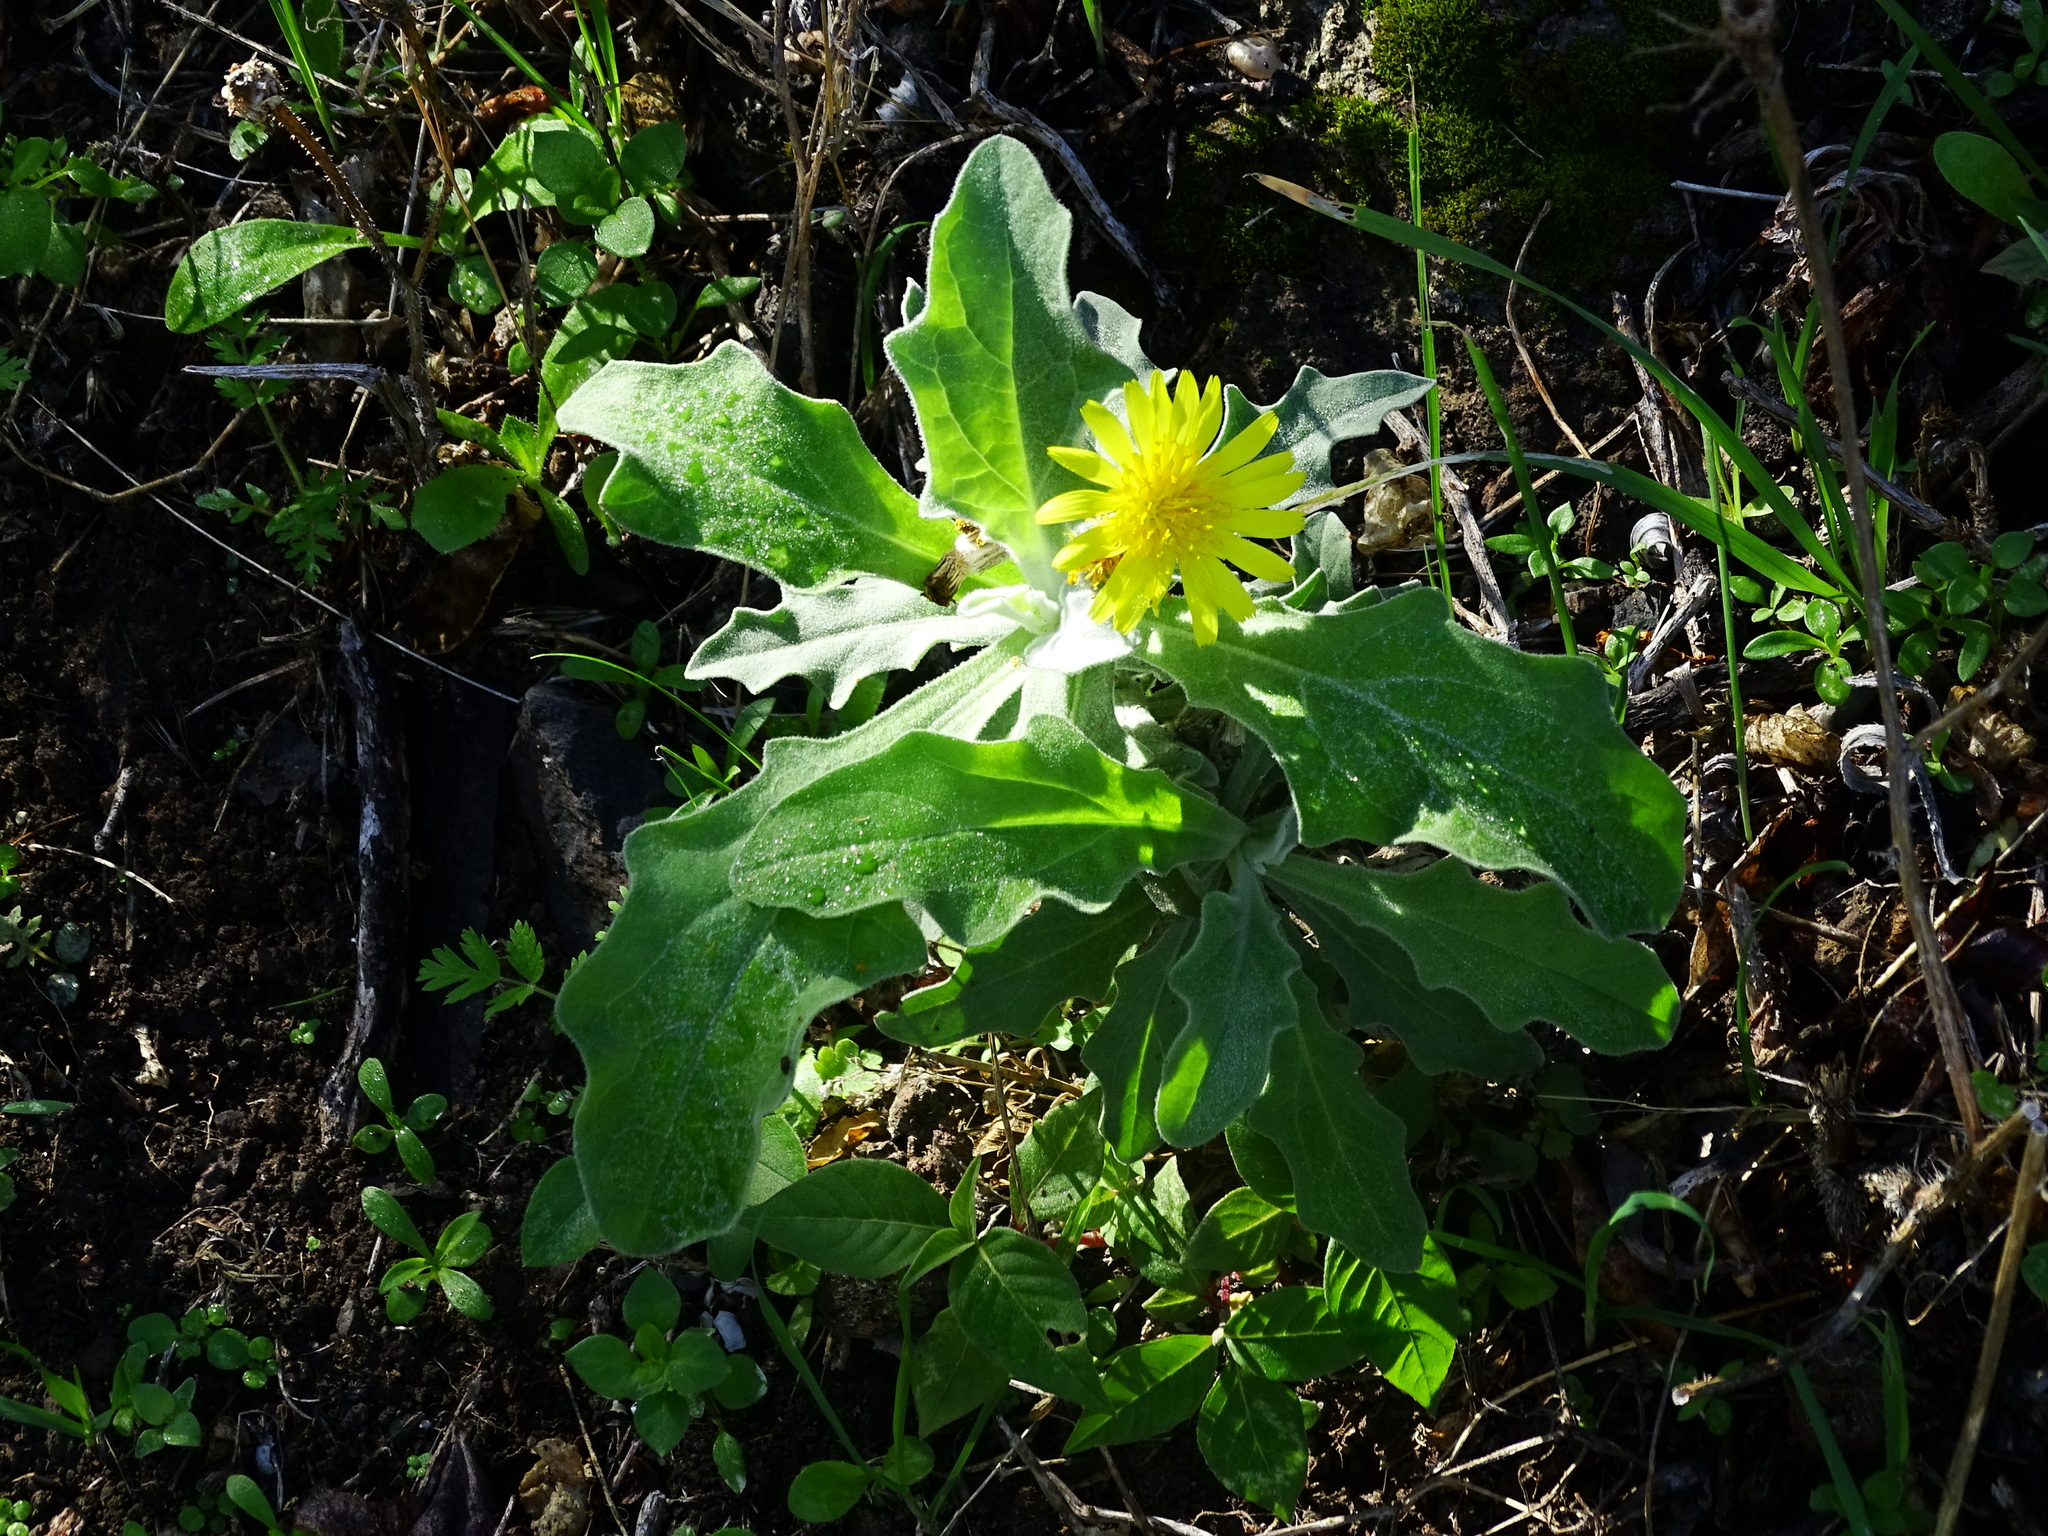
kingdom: Plantae
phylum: Tracheophyta
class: Magnoliopsida
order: Asterales
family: Asteraceae
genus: Andryala
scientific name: Andryala pinnatifida
